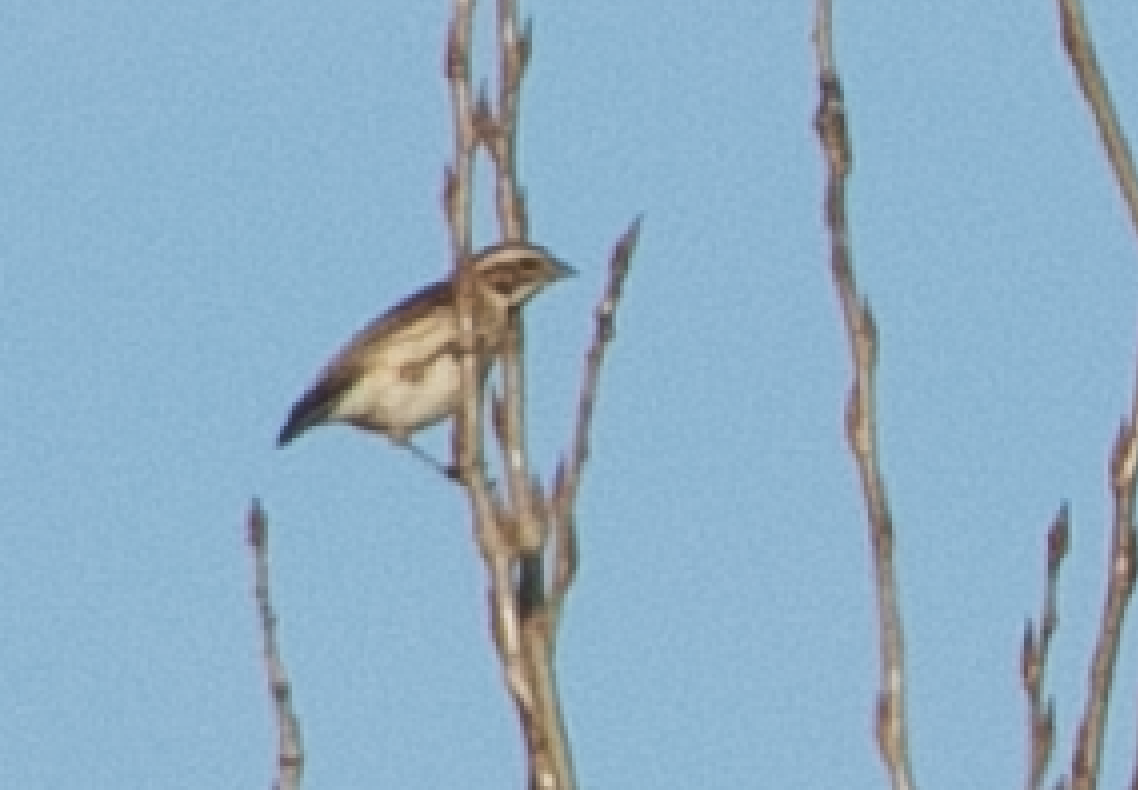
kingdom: Animalia
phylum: Chordata
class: Aves
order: Passeriformes
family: Emberizidae
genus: Emberiza
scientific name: Emberiza schoeniclus
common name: Reed bunting
